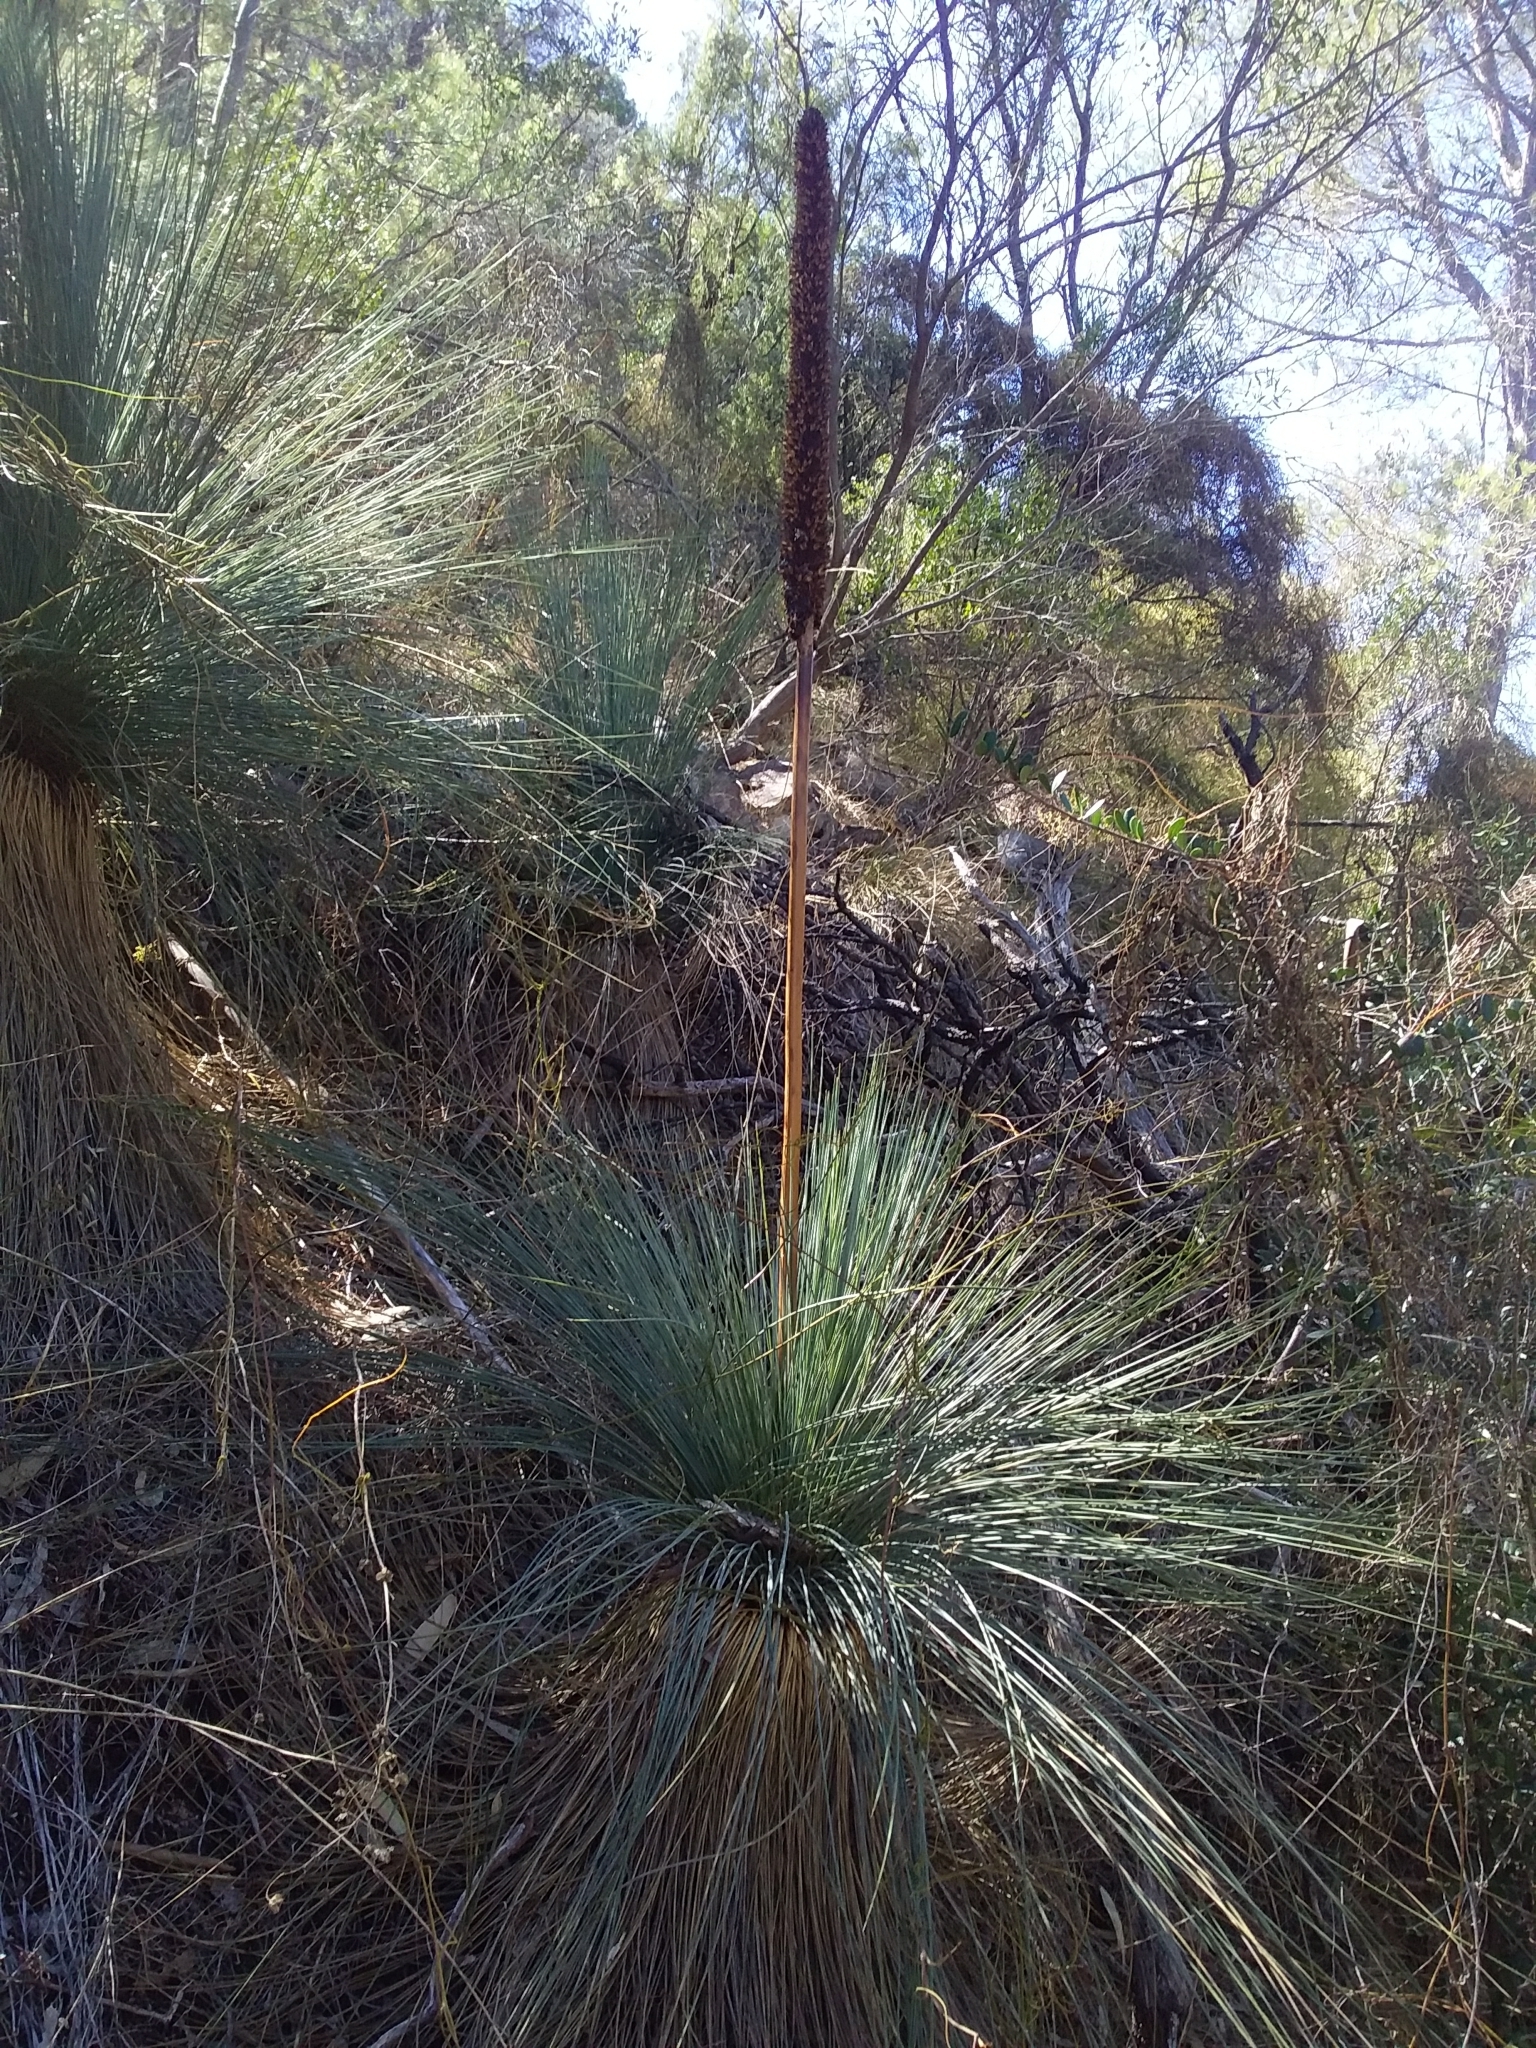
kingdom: Plantae
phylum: Tracheophyta
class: Liliopsida
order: Asparagales
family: Asphodelaceae
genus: Xanthorrhoea
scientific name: Xanthorrhoea quadrangulata
